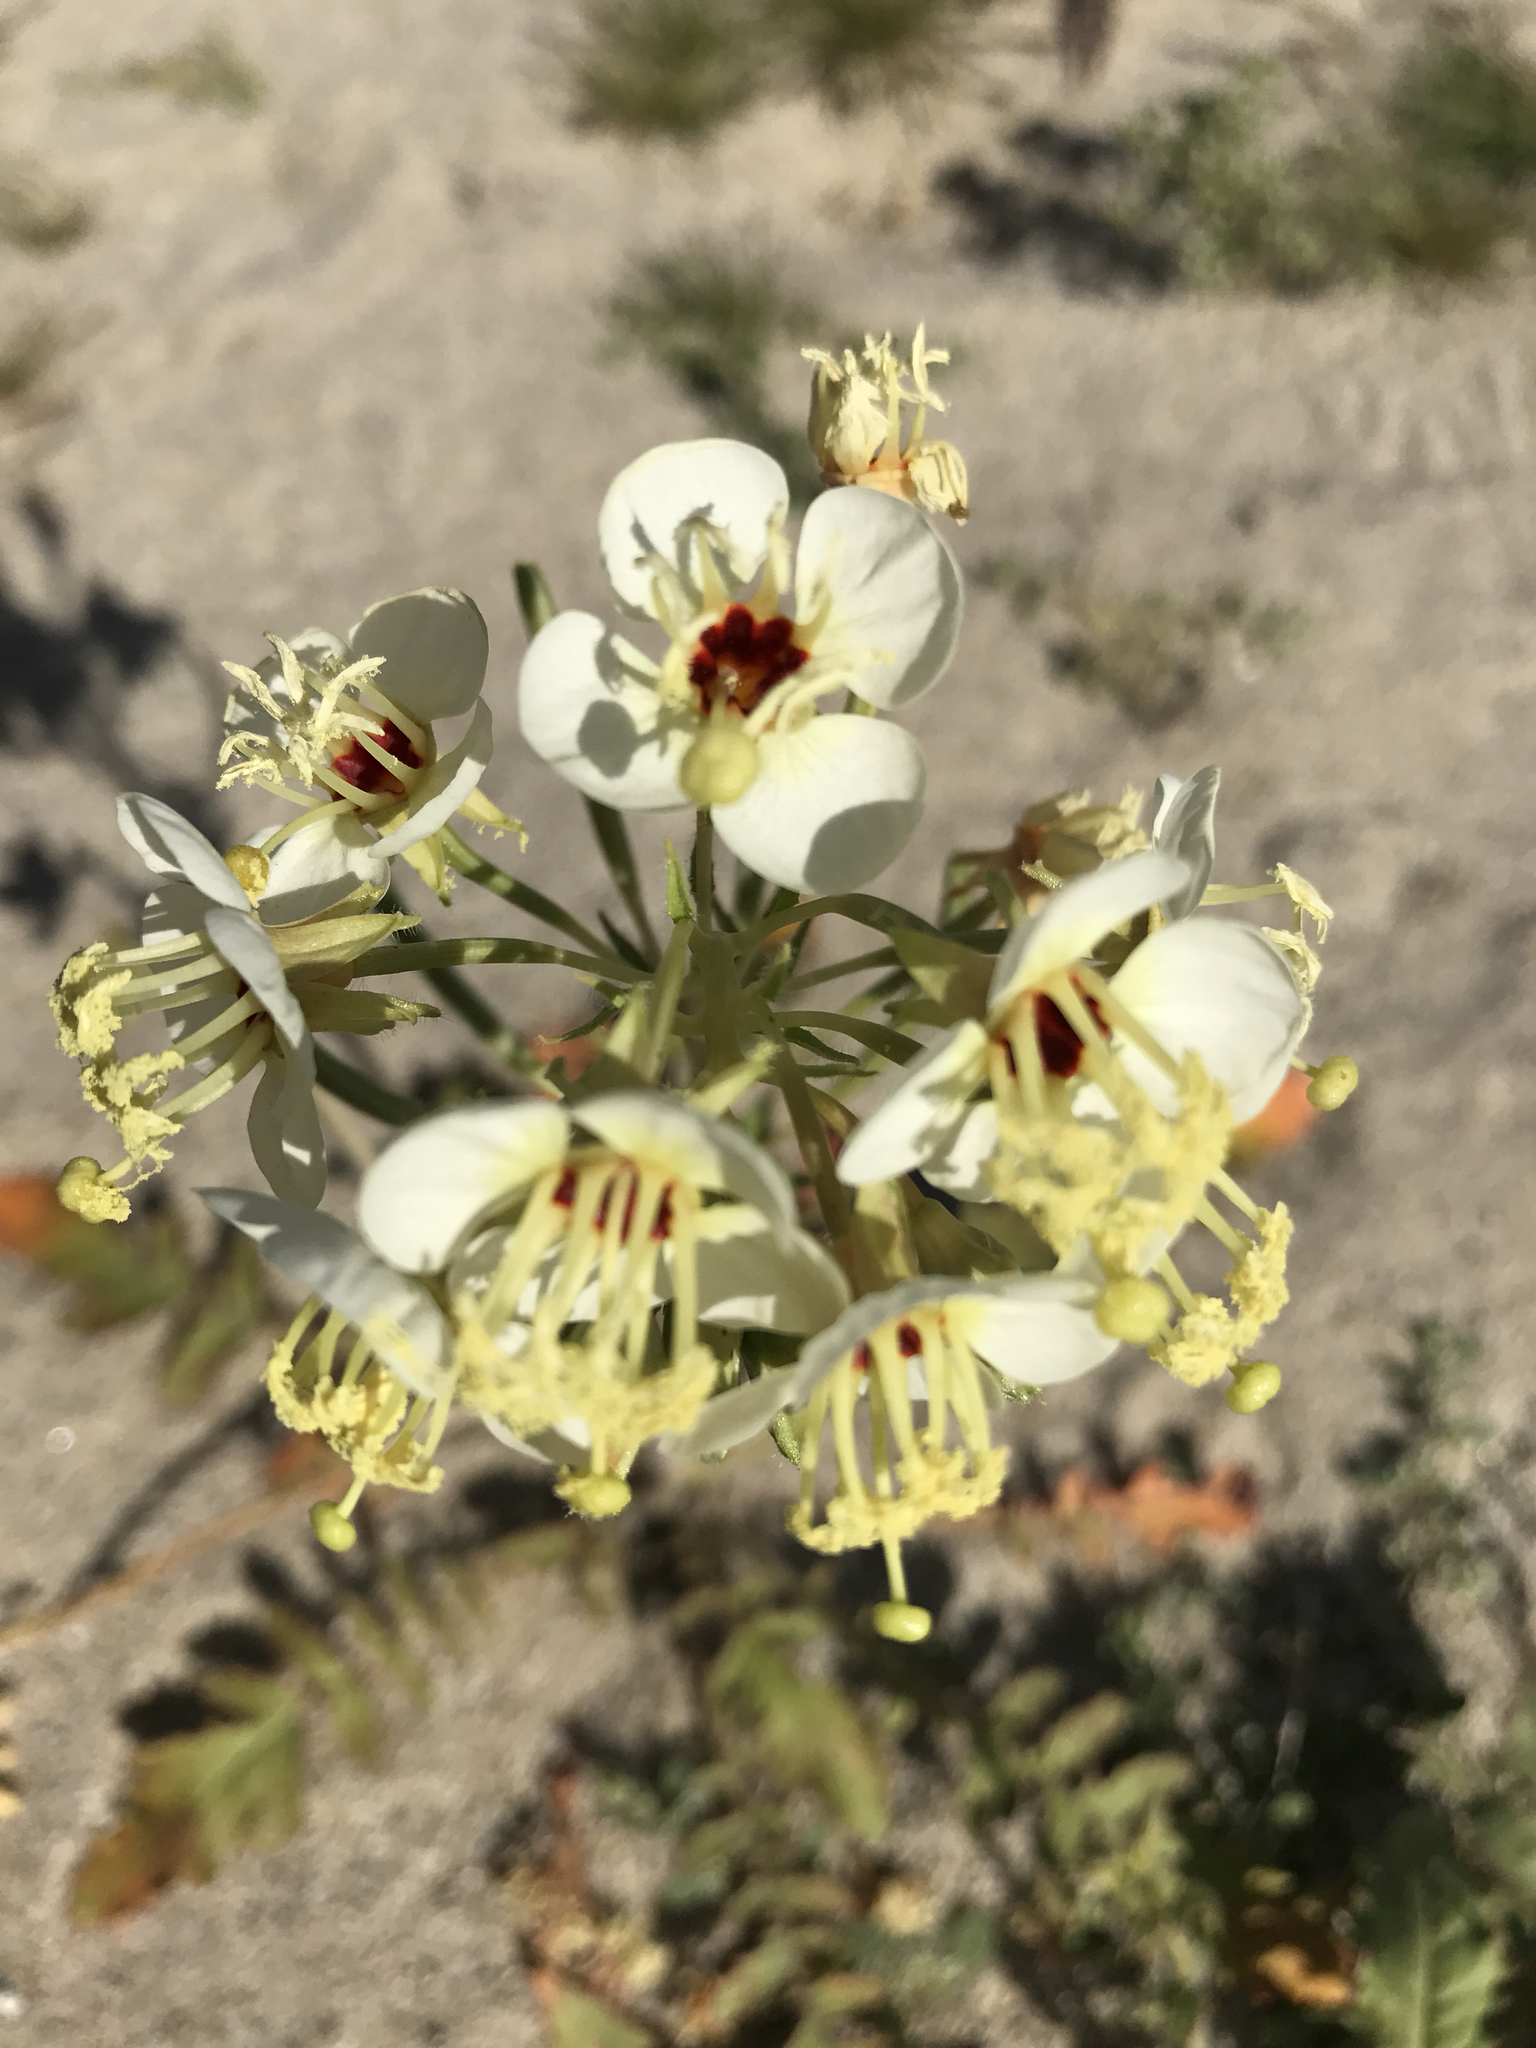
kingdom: Plantae
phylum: Tracheophyta
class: Magnoliopsida
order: Myrtales
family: Onagraceae
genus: Chylismia
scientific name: Chylismia claviformis
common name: Browneyes
